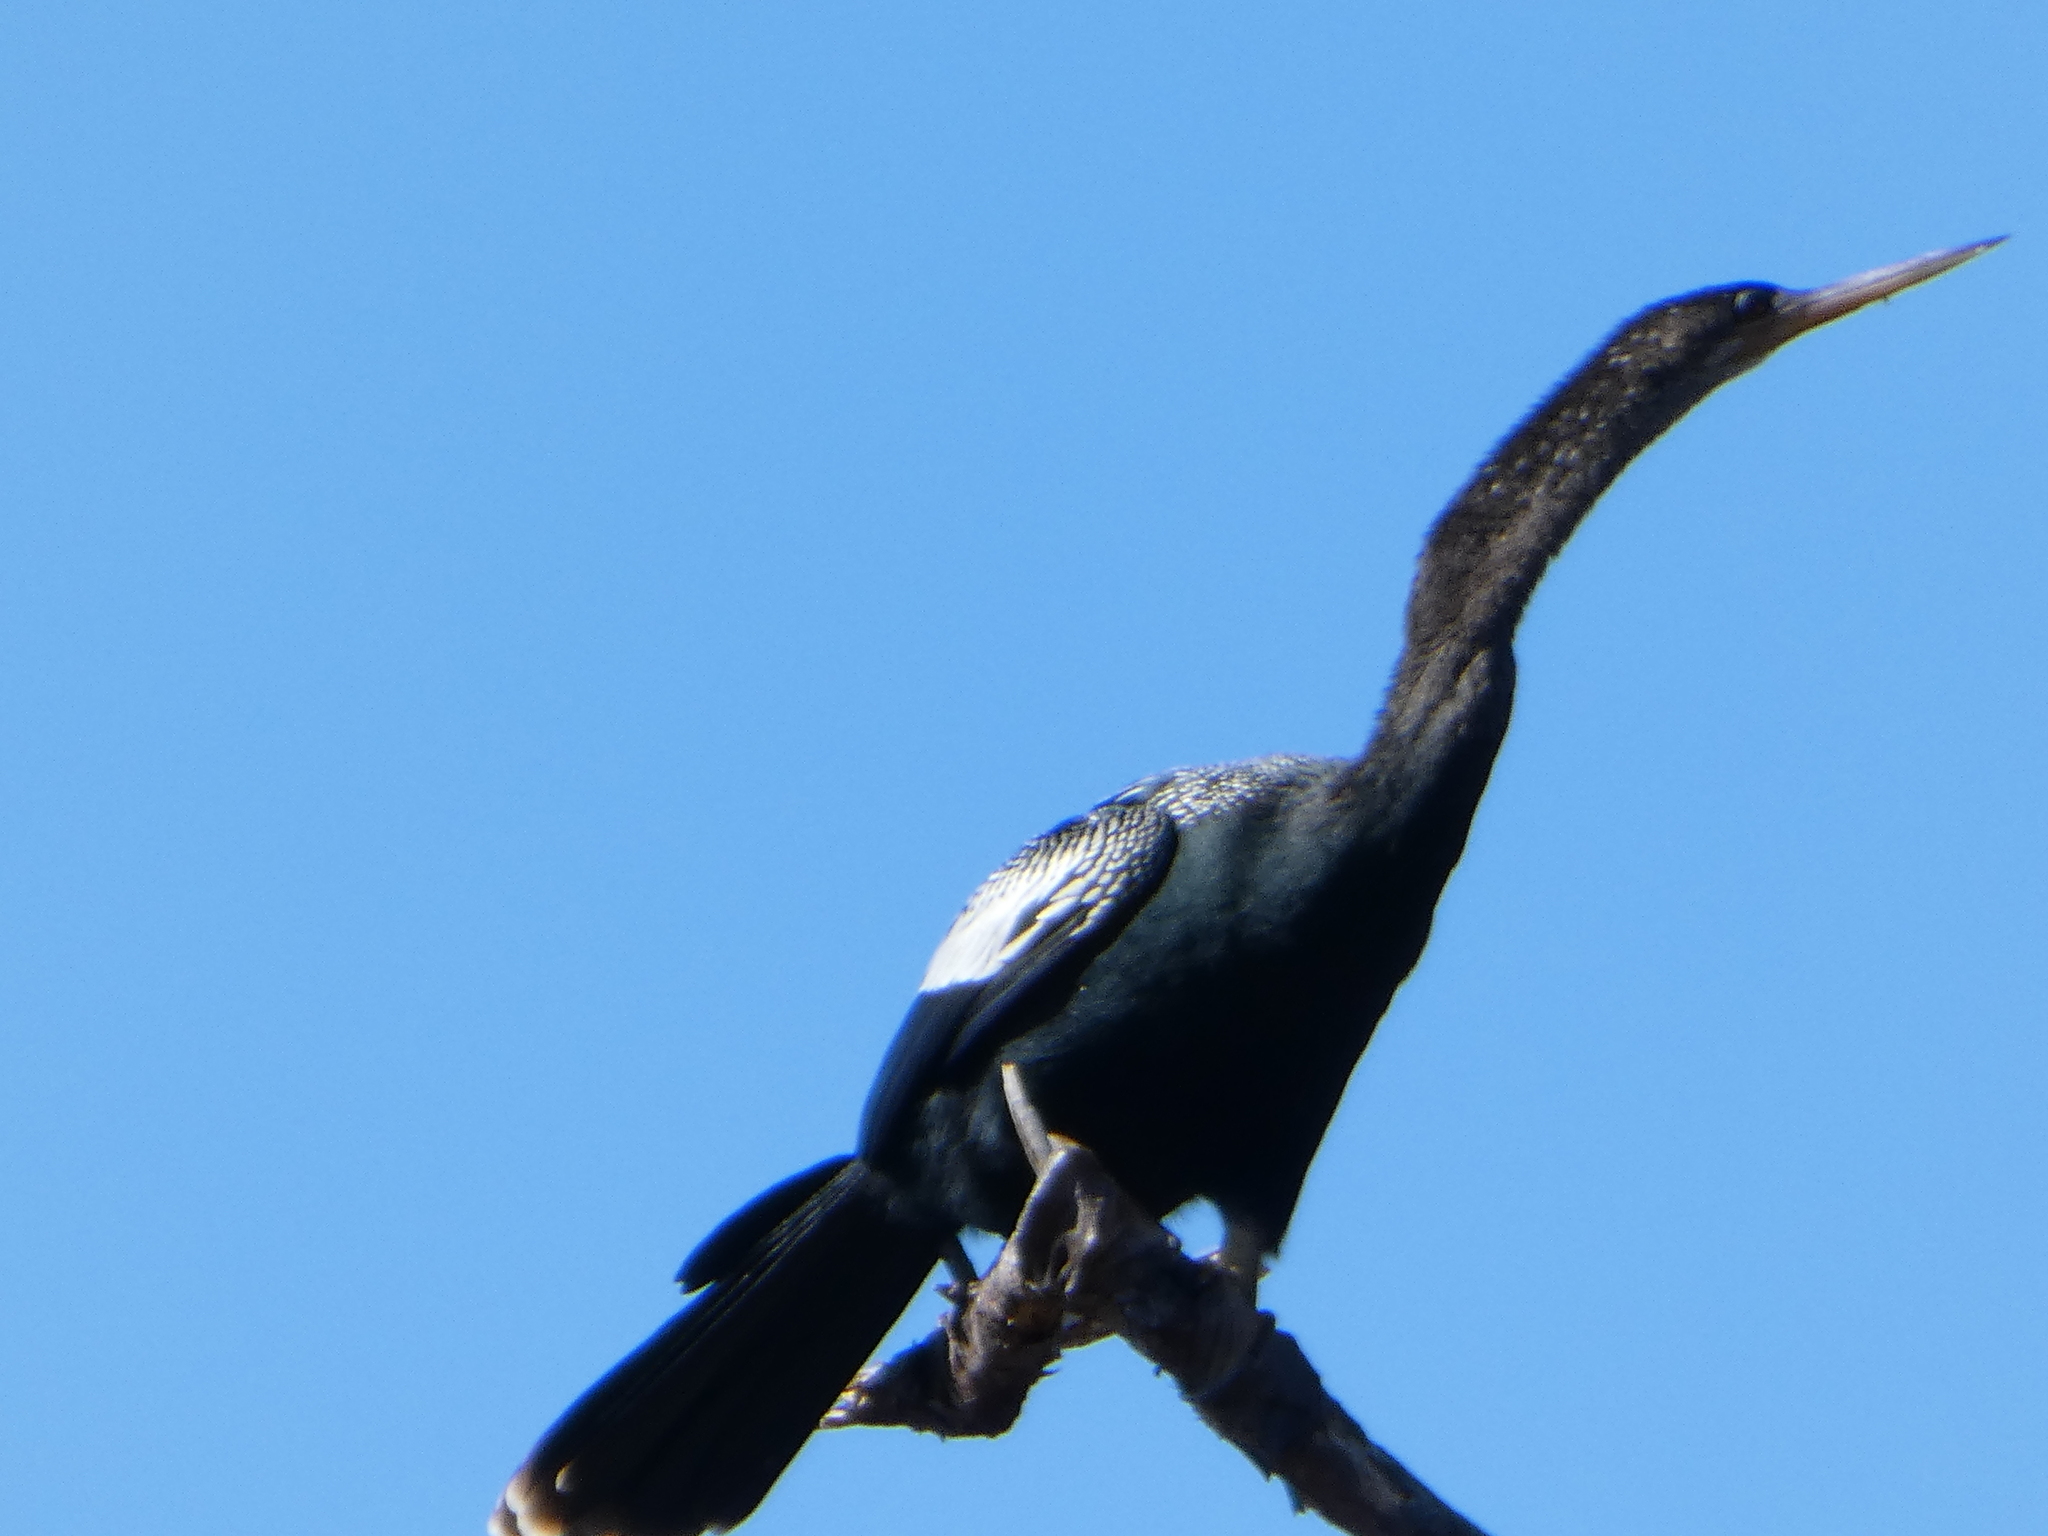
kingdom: Animalia
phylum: Chordata
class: Aves
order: Suliformes
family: Anhingidae
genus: Anhinga
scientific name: Anhinga anhinga
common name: Anhinga
